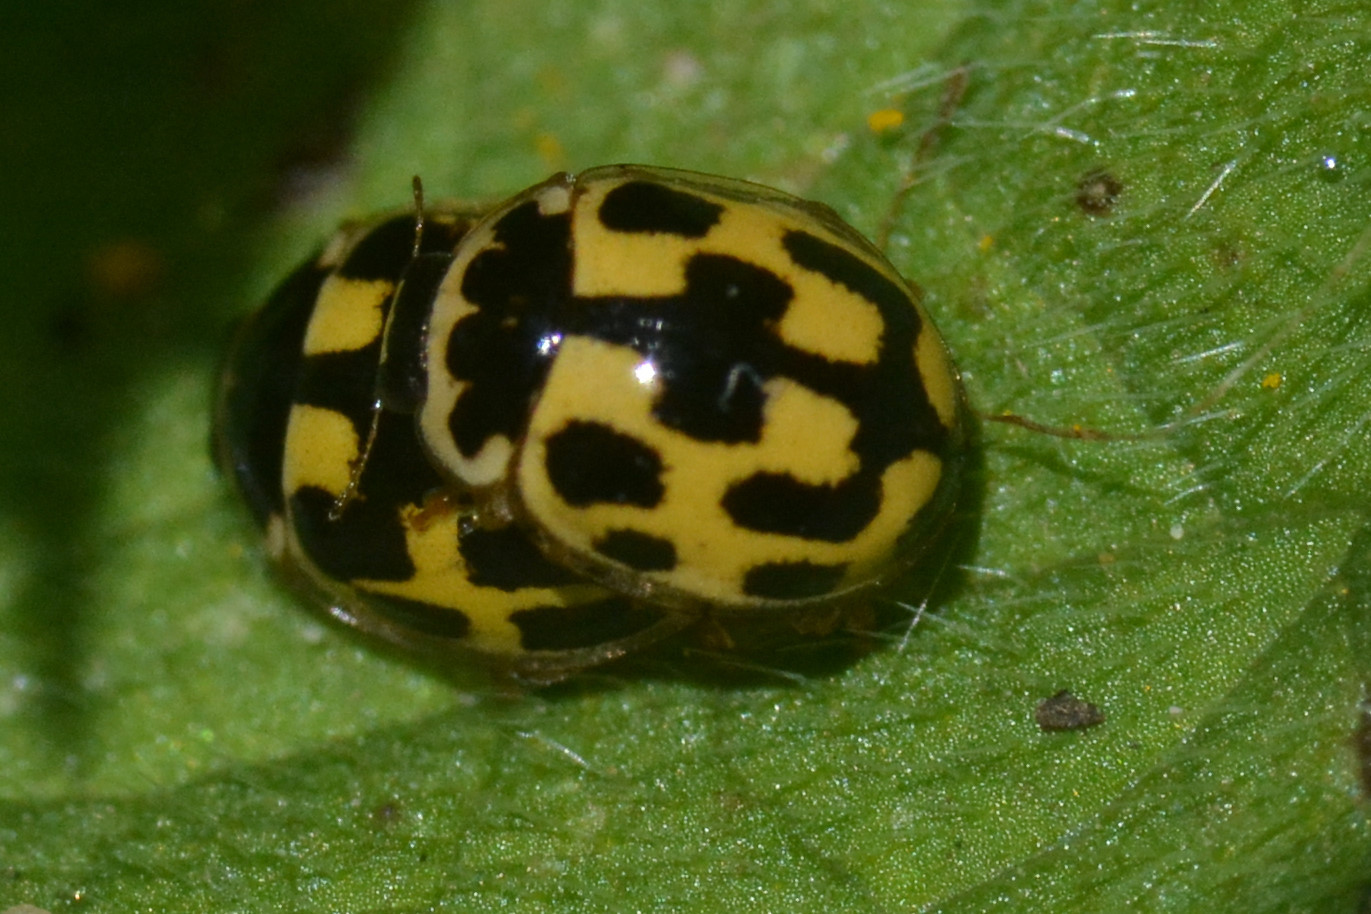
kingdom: Animalia
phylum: Arthropoda
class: Insecta
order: Coleoptera
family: Coccinellidae
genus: Propylaea
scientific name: Propylaea quatuordecimpunctata
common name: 14-spotted ladybird beetle
